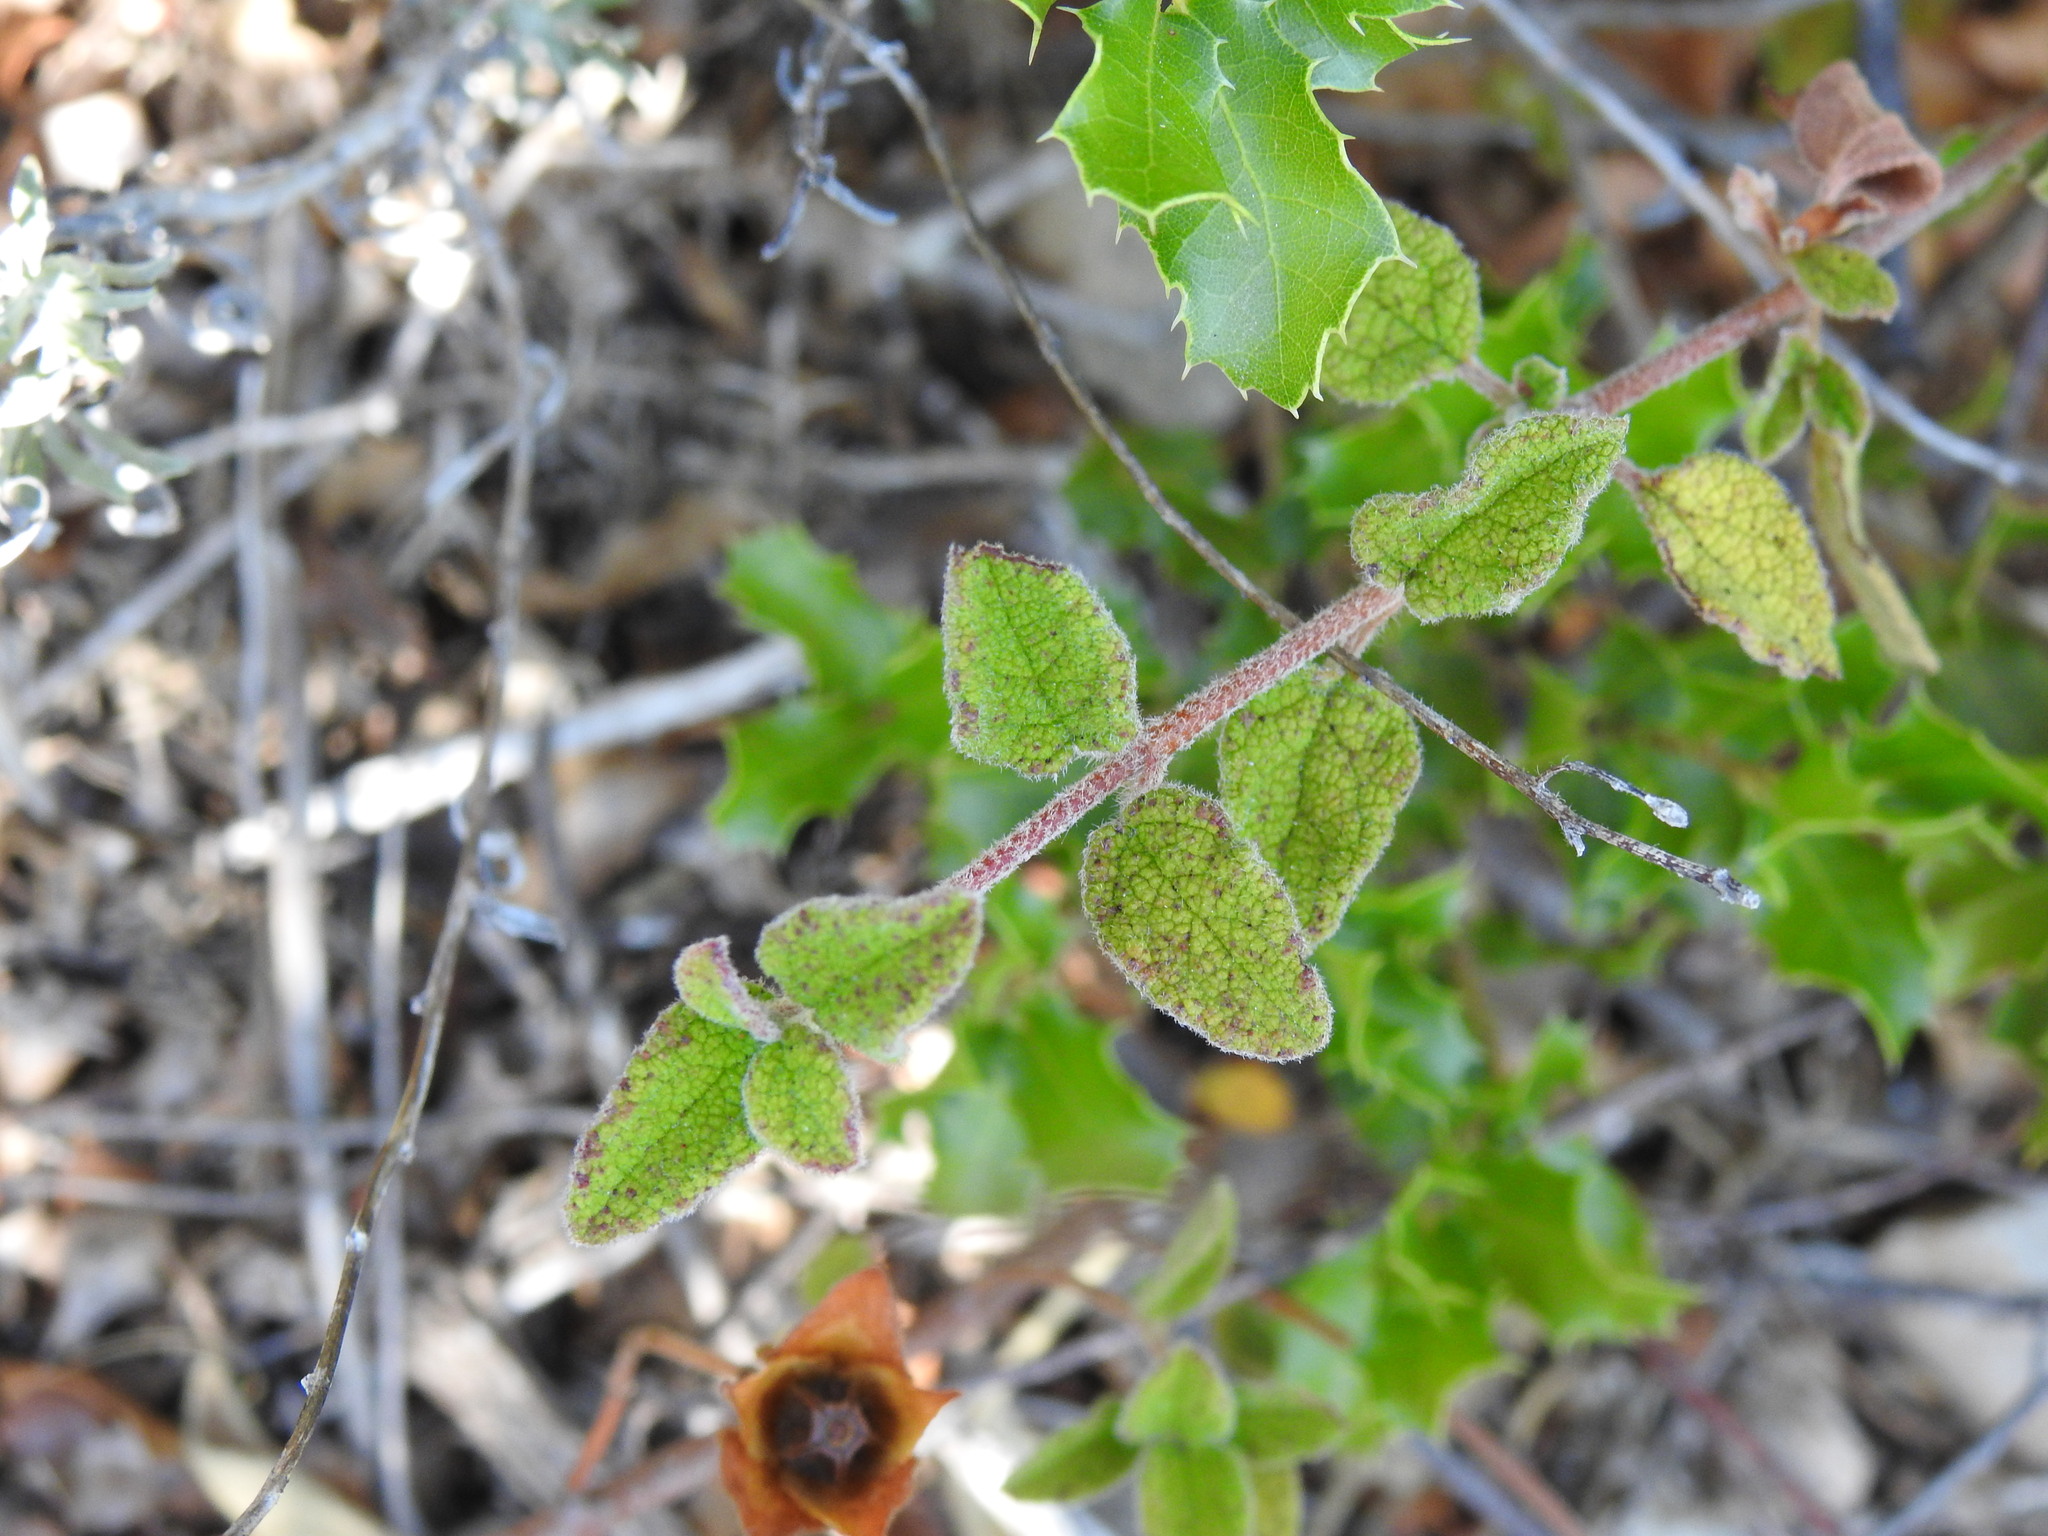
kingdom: Plantae
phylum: Tracheophyta
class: Magnoliopsida
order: Malvales
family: Cistaceae
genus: Cistus
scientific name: Cistus salviifolius
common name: Salvia cistus
